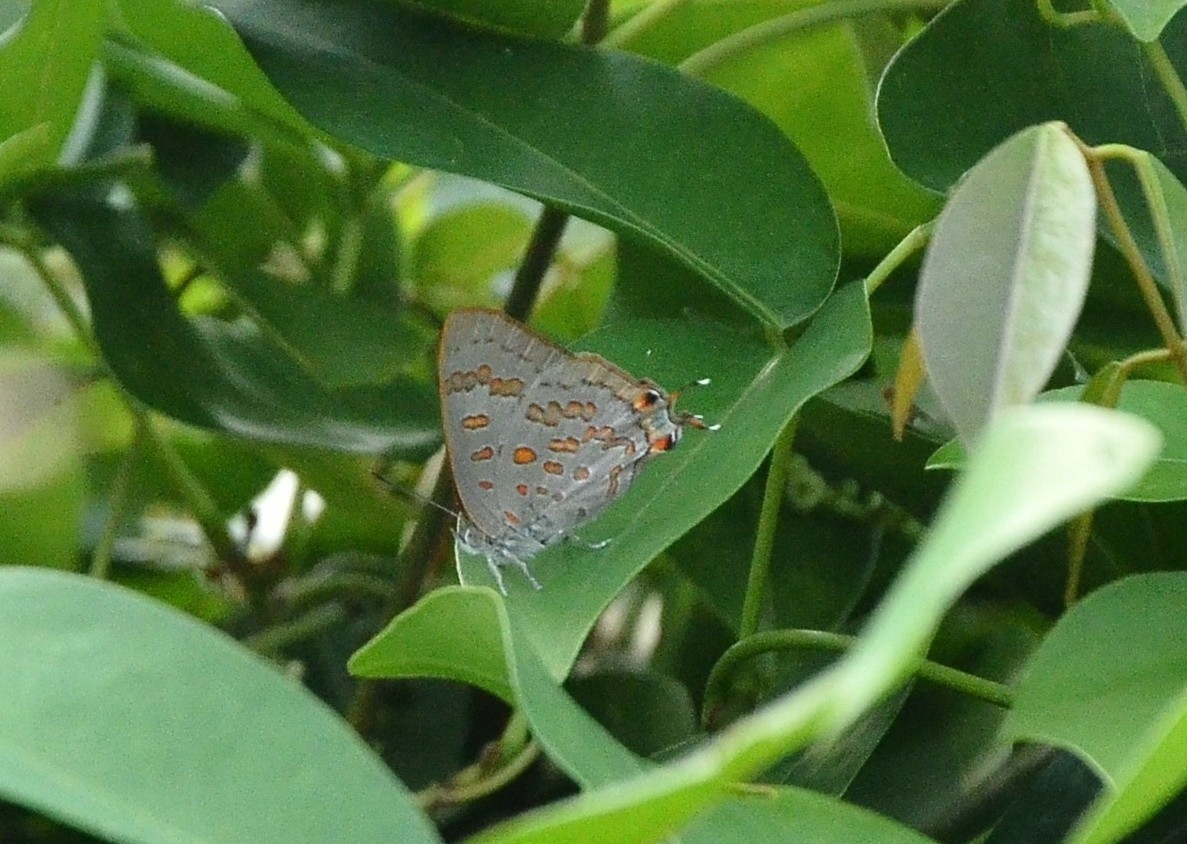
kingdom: Animalia
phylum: Arthropoda
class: Insecta
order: Lepidoptera
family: Lycaenidae
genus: Zesius
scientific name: Zesius chrysomallus
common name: Redspot
